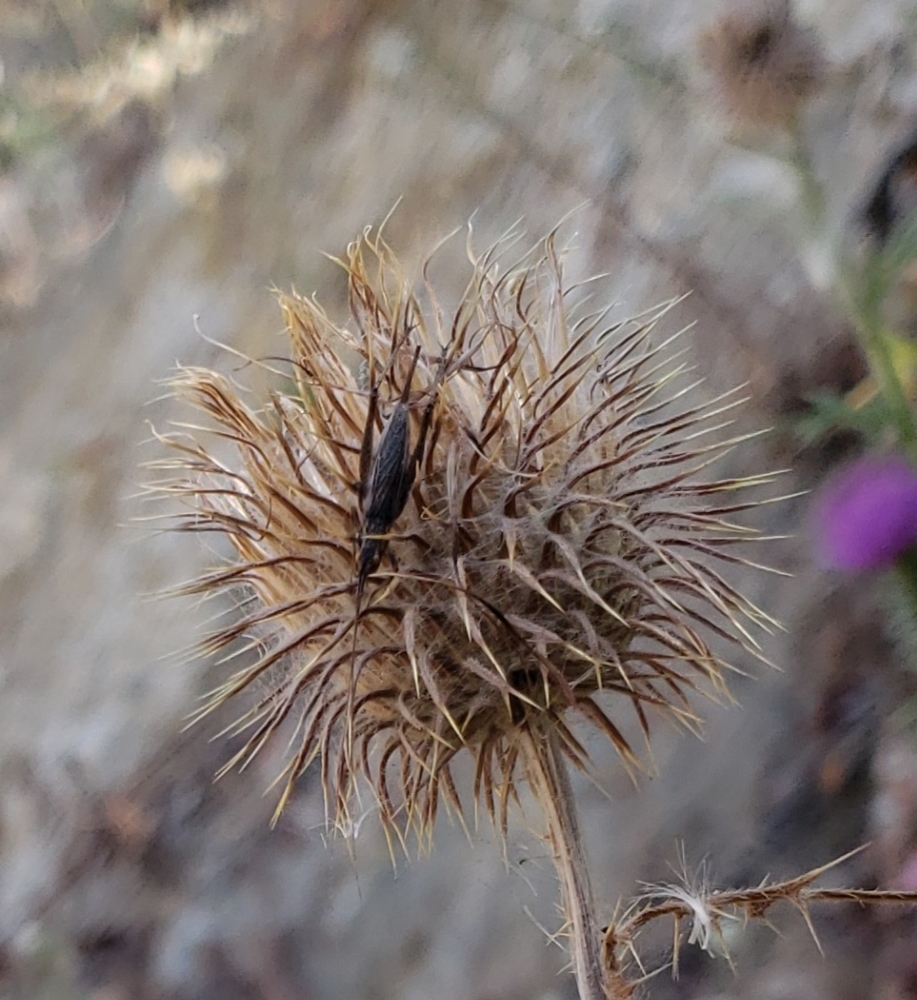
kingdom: Animalia
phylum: Arthropoda
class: Insecta
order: Orthoptera
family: Gryllidae
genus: Oecanthus
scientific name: Oecanthus
